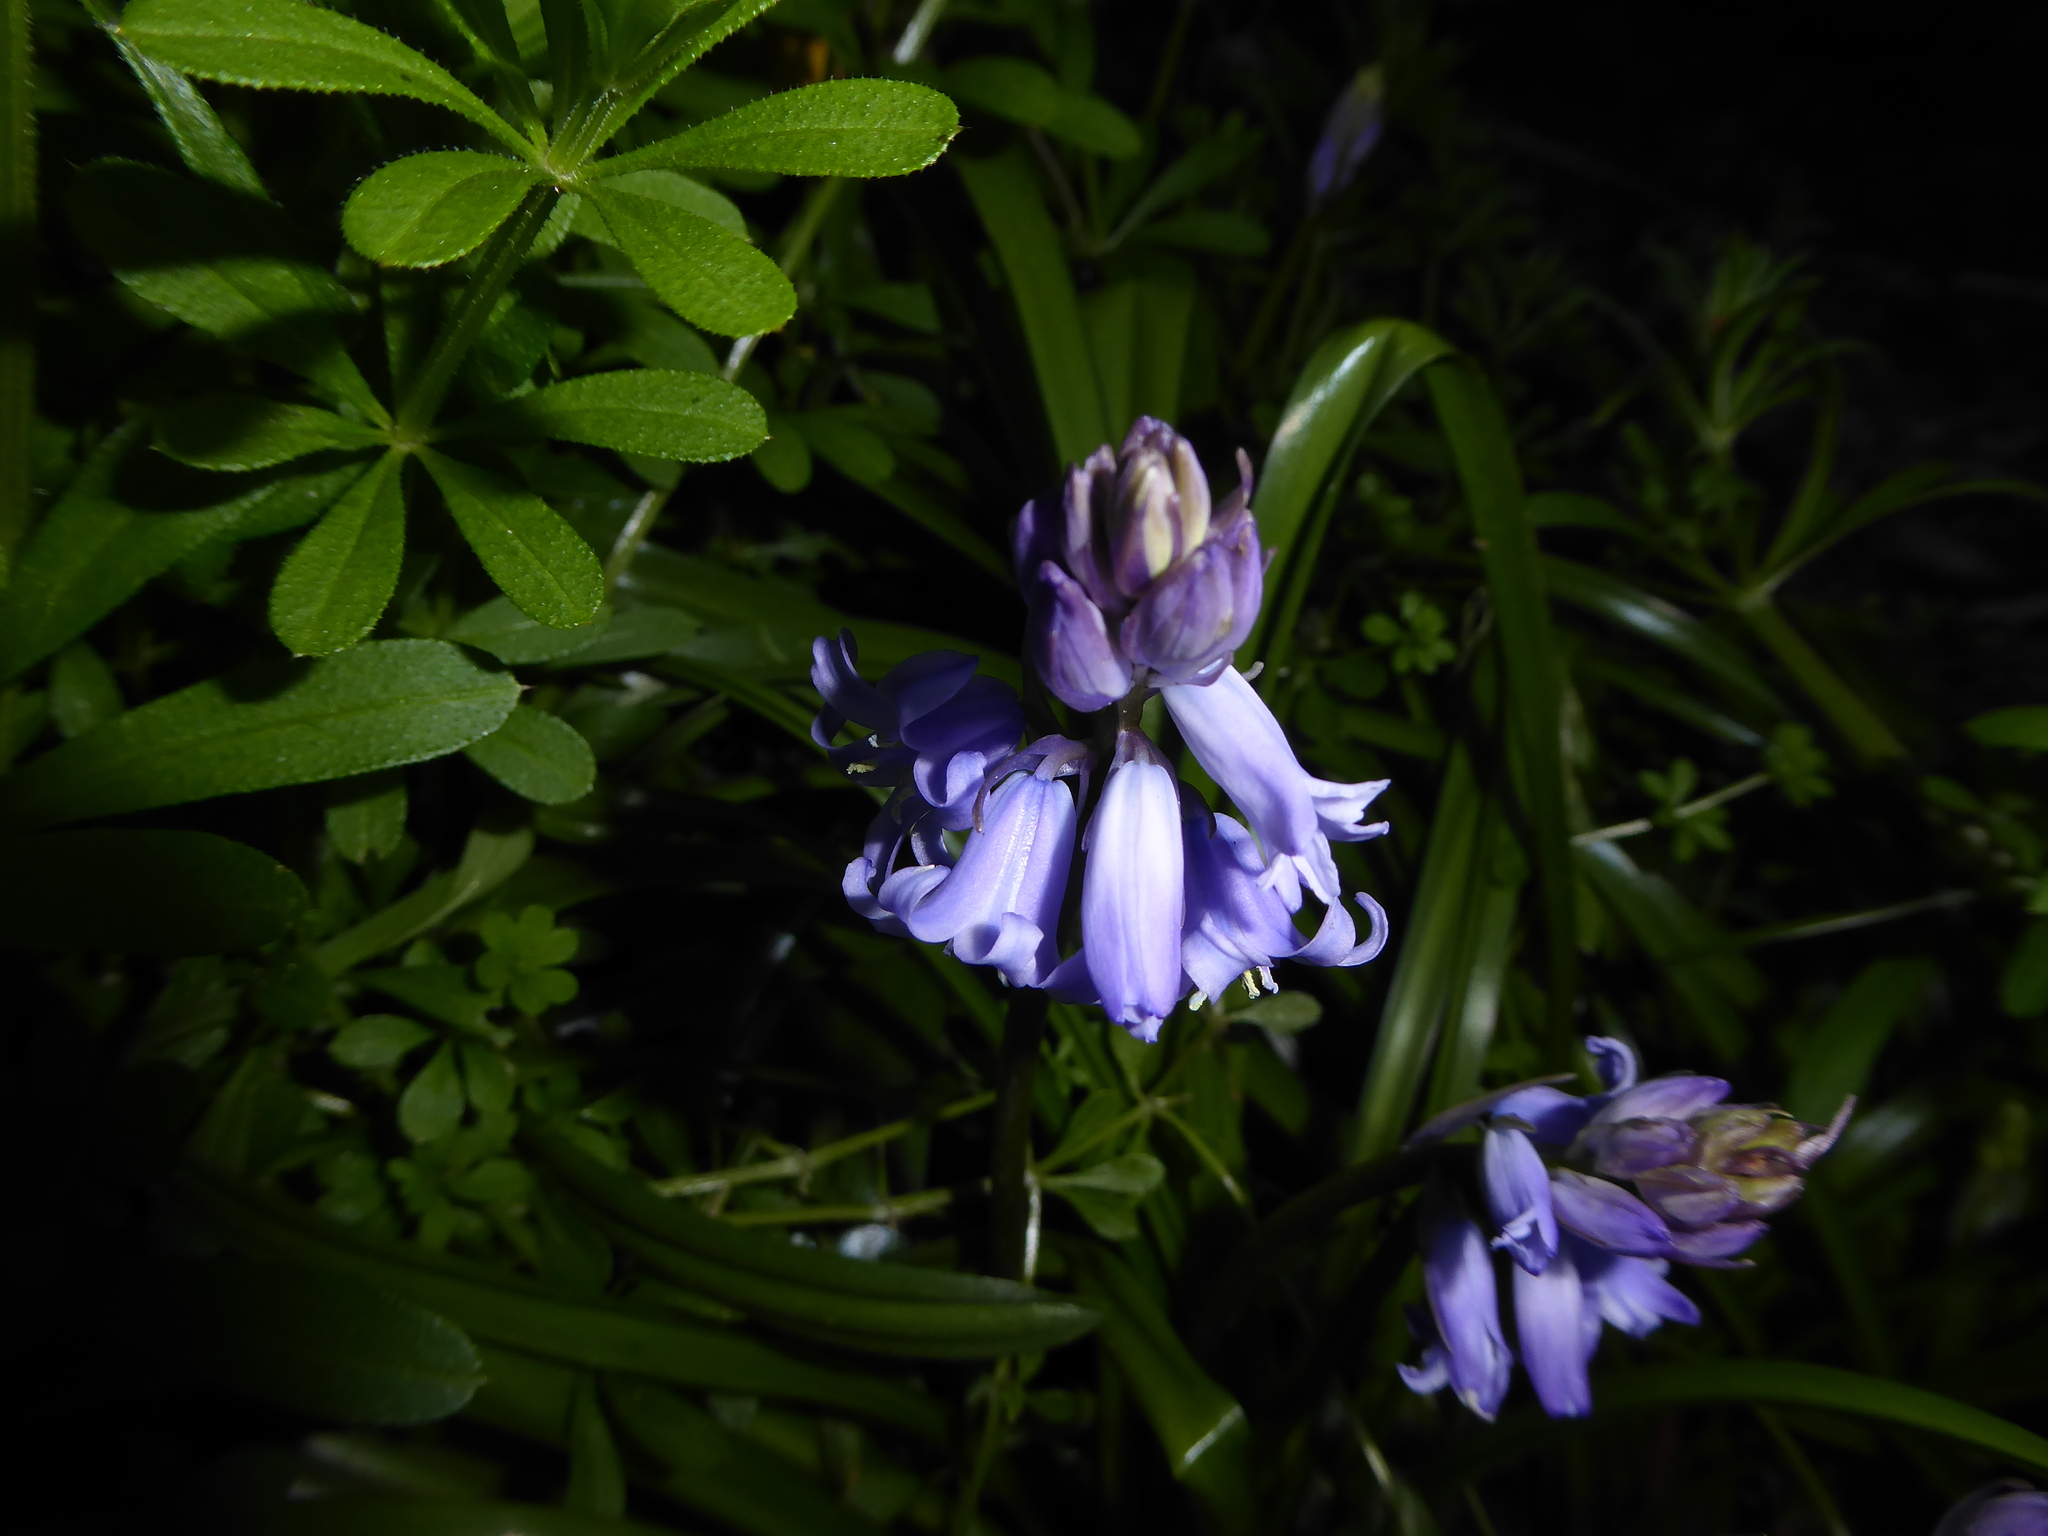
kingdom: Plantae
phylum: Tracheophyta
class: Liliopsida
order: Asparagales
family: Asparagaceae
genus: Hyacinthoides
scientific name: Hyacinthoides massartiana
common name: Hyacinthoides
